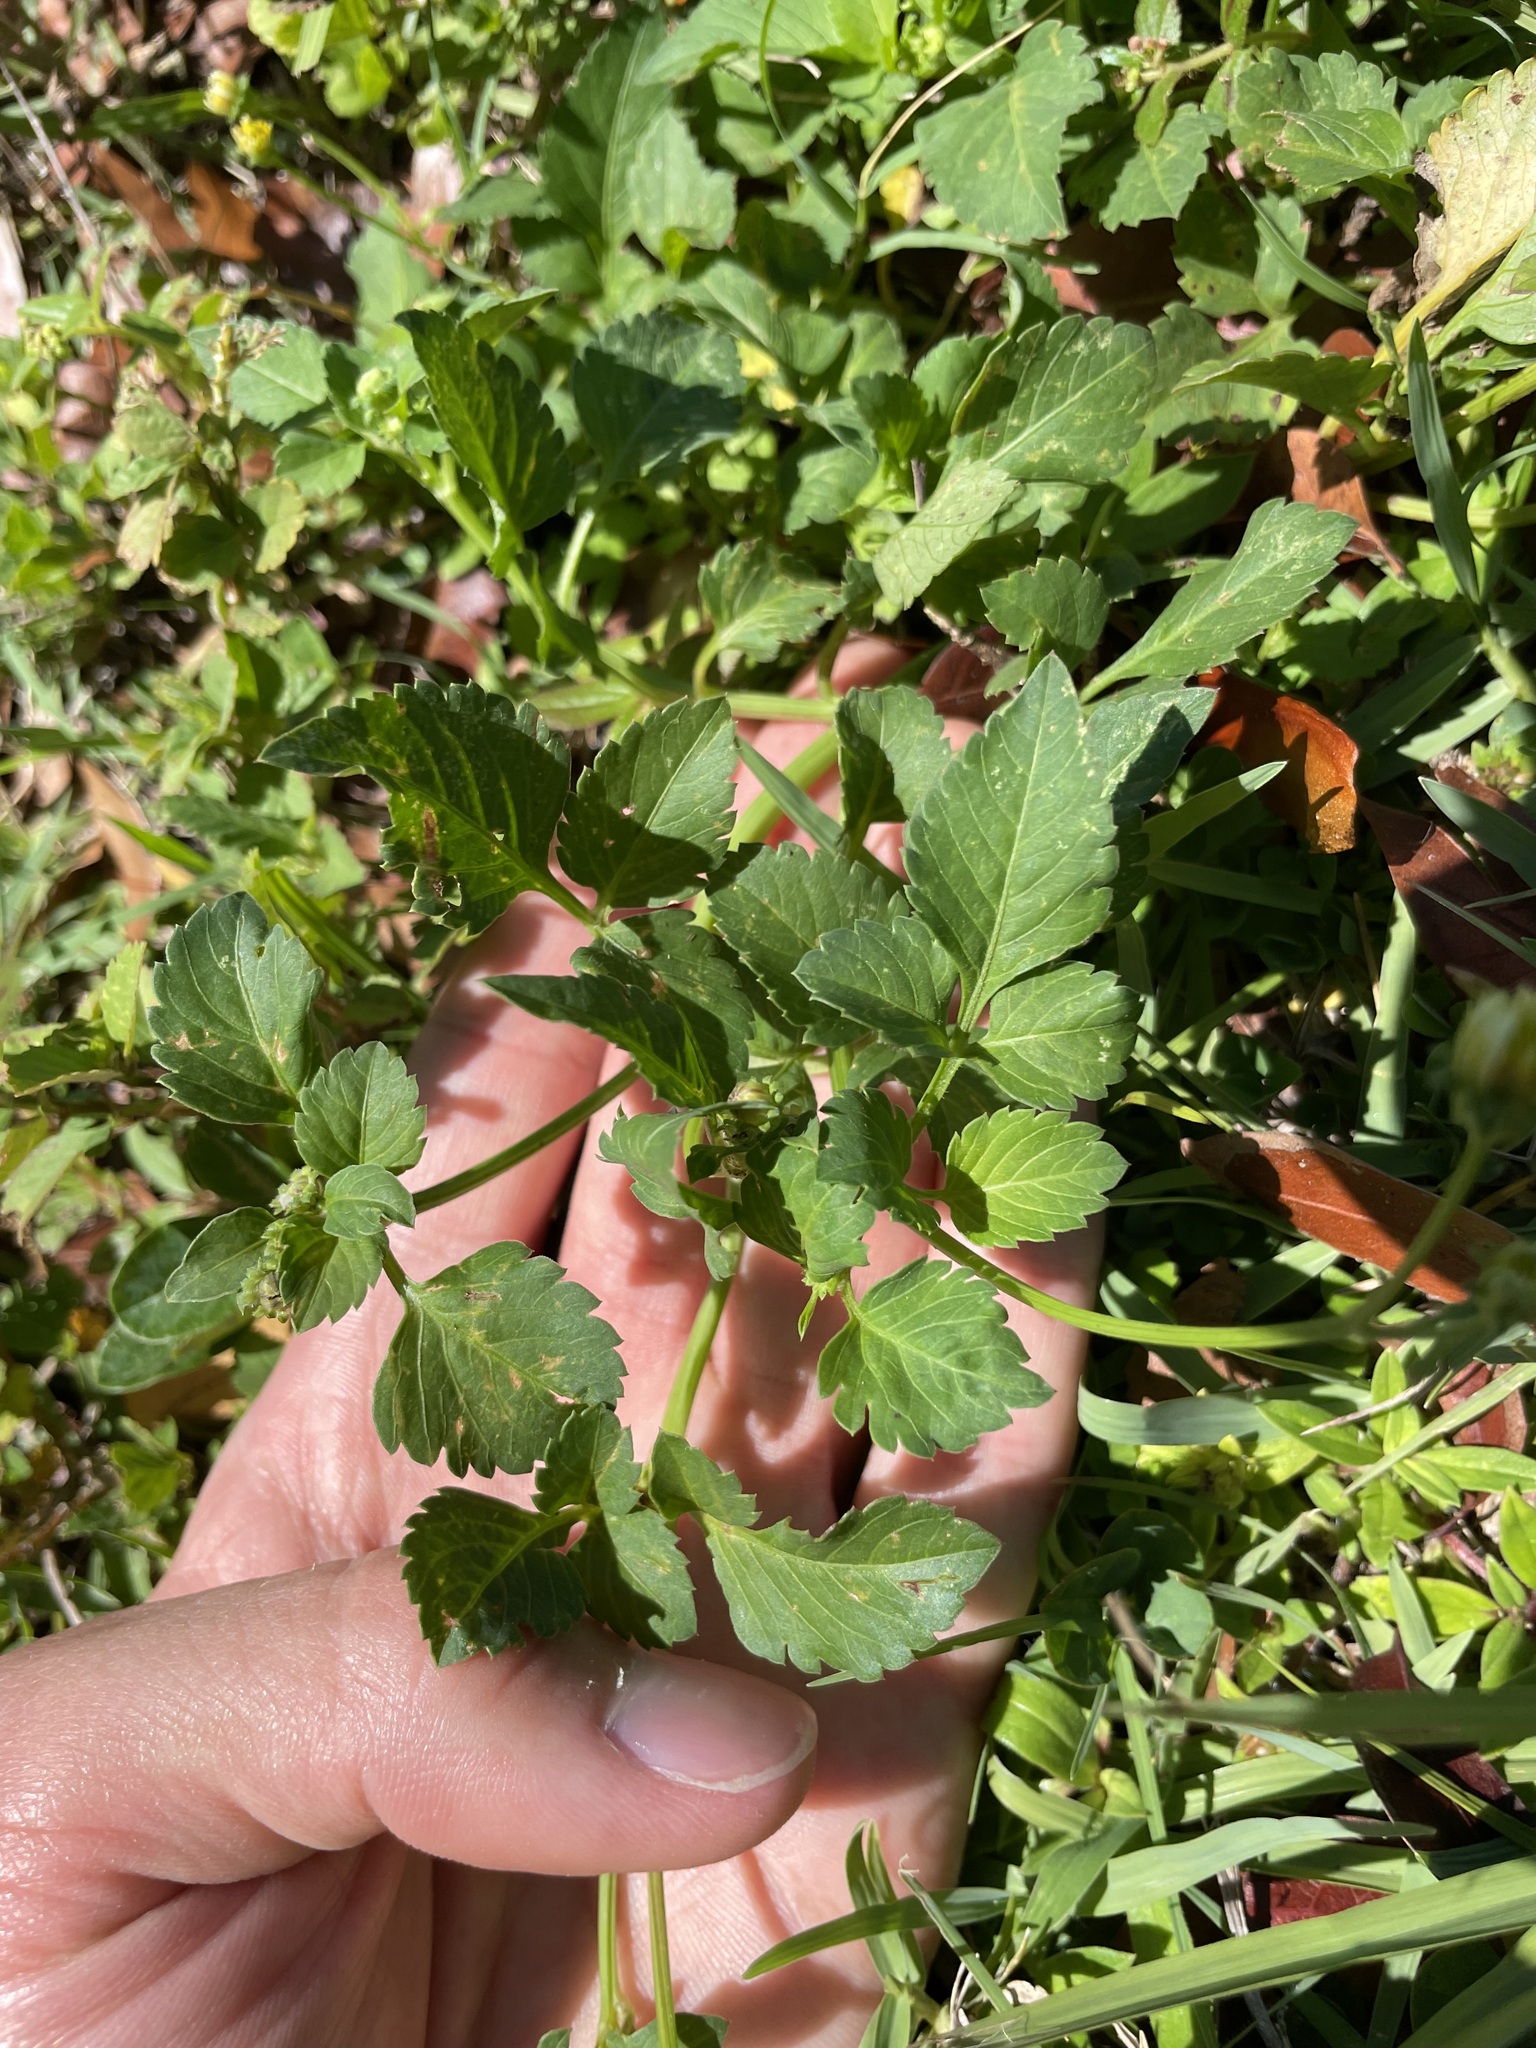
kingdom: Plantae
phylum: Tracheophyta
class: Magnoliopsida
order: Asterales
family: Asteraceae
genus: Bidens
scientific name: Bidens alba
